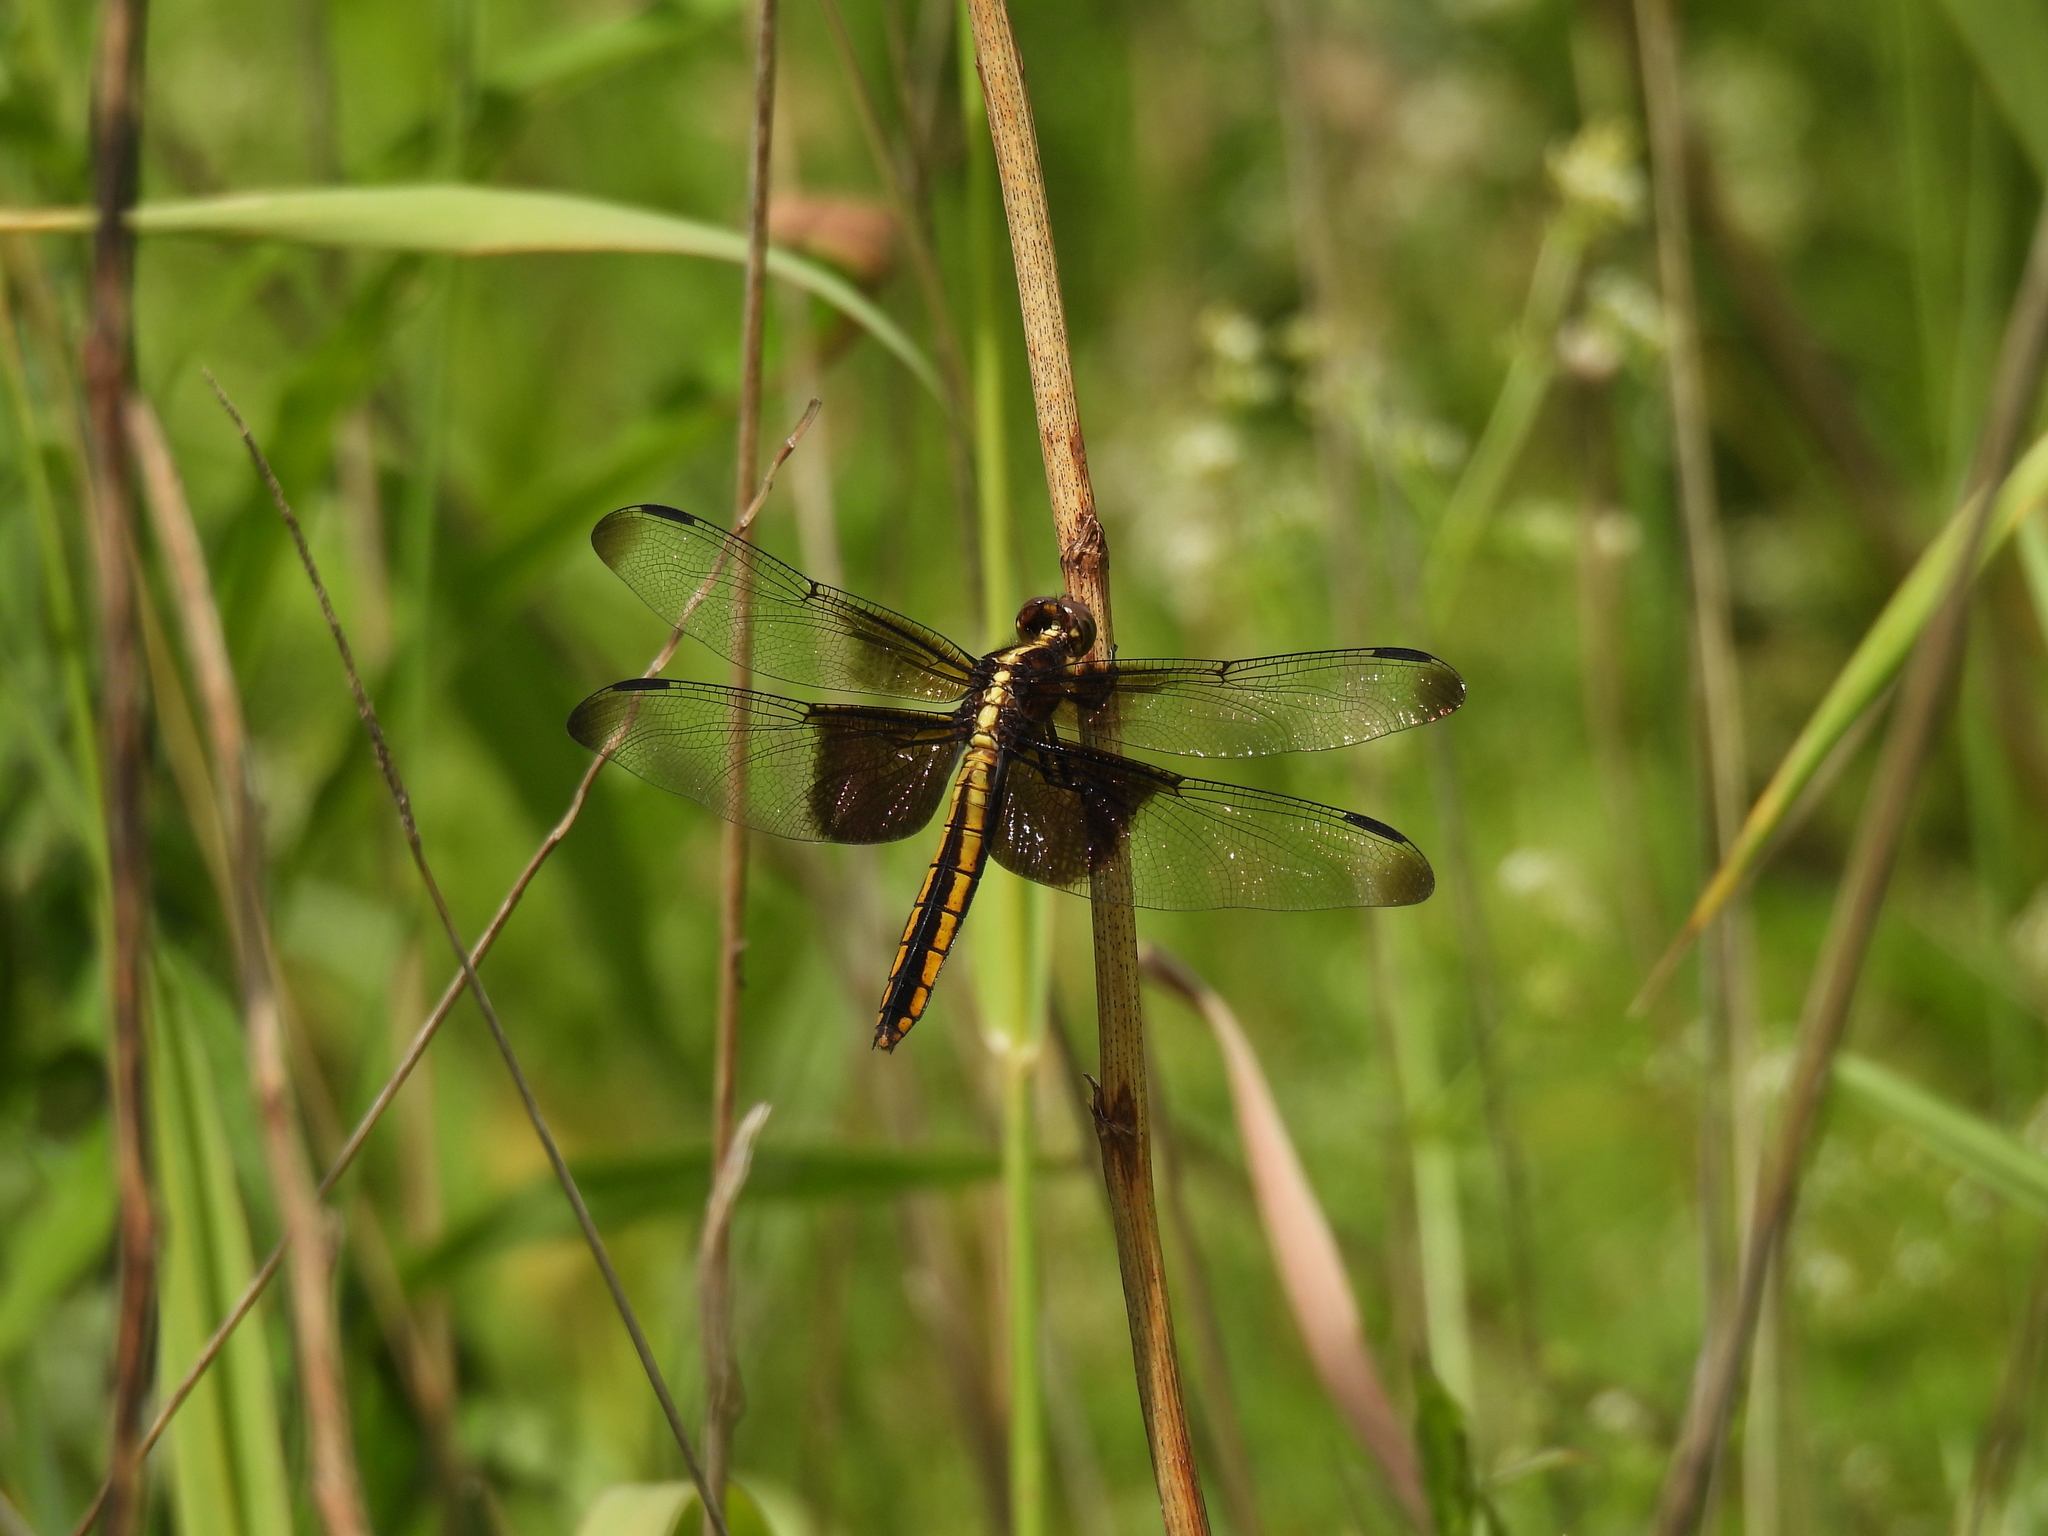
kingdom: Animalia
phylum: Arthropoda
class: Insecta
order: Odonata
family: Libellulidae
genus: Libellula
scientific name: Libellula luctuosa
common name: Widow skimmer
